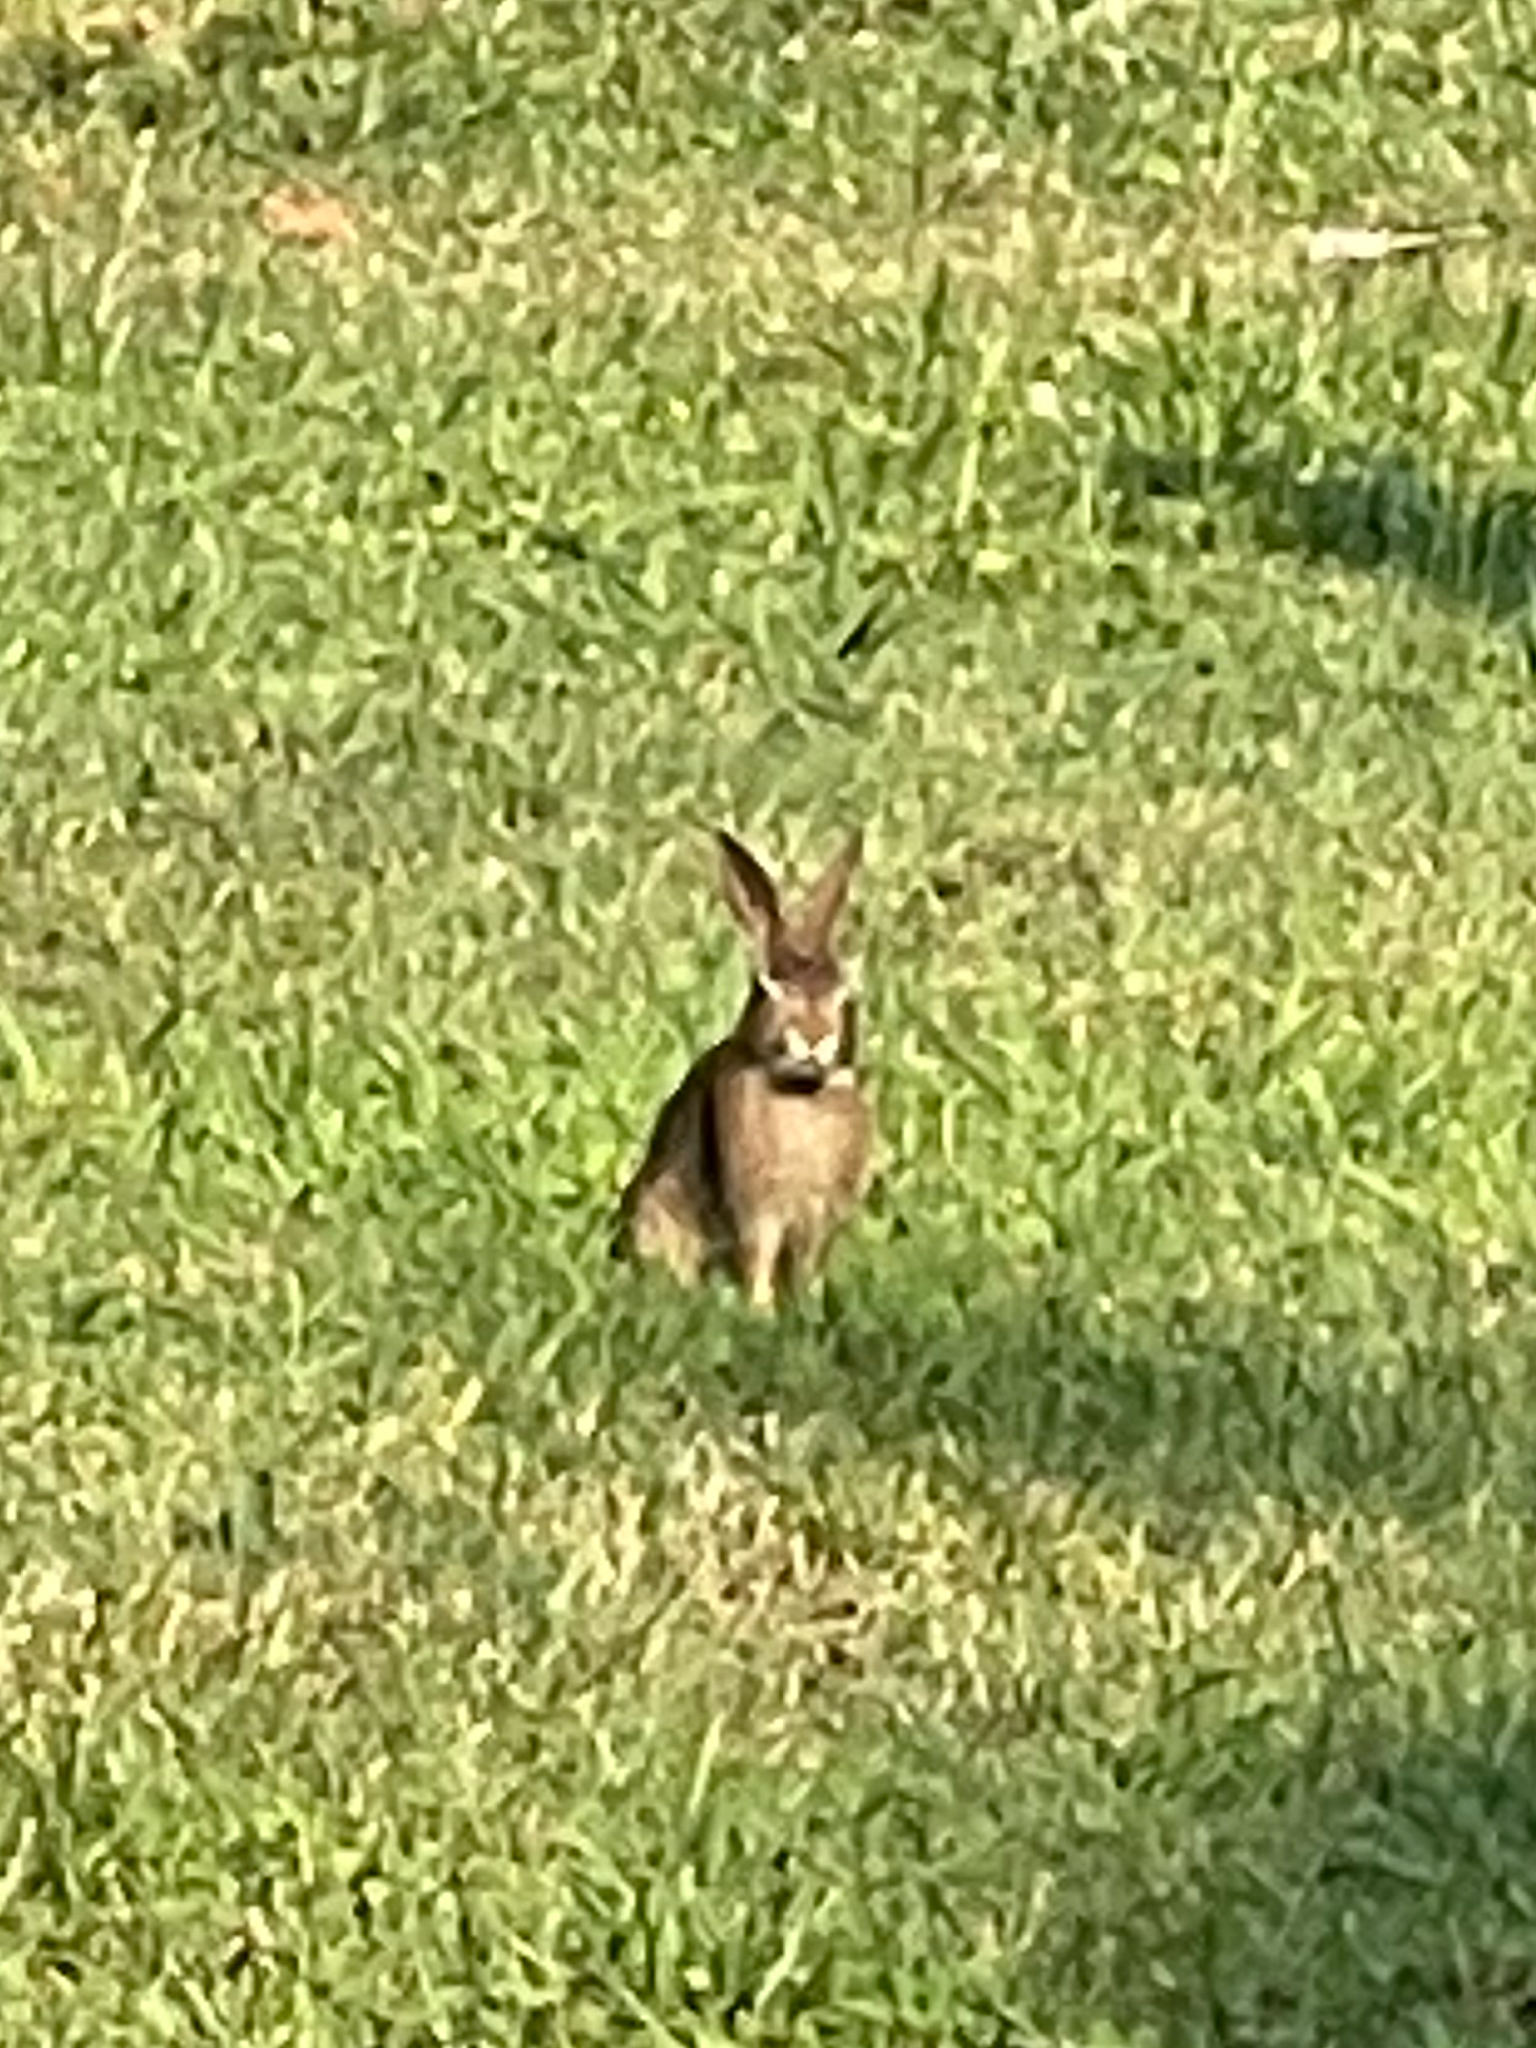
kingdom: Animalia
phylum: Chordata
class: Mammalia
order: Lagomorpha
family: Leporidae
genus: Sylvilagus
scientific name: Sylvilagus floridanus
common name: Eastern cottontail
